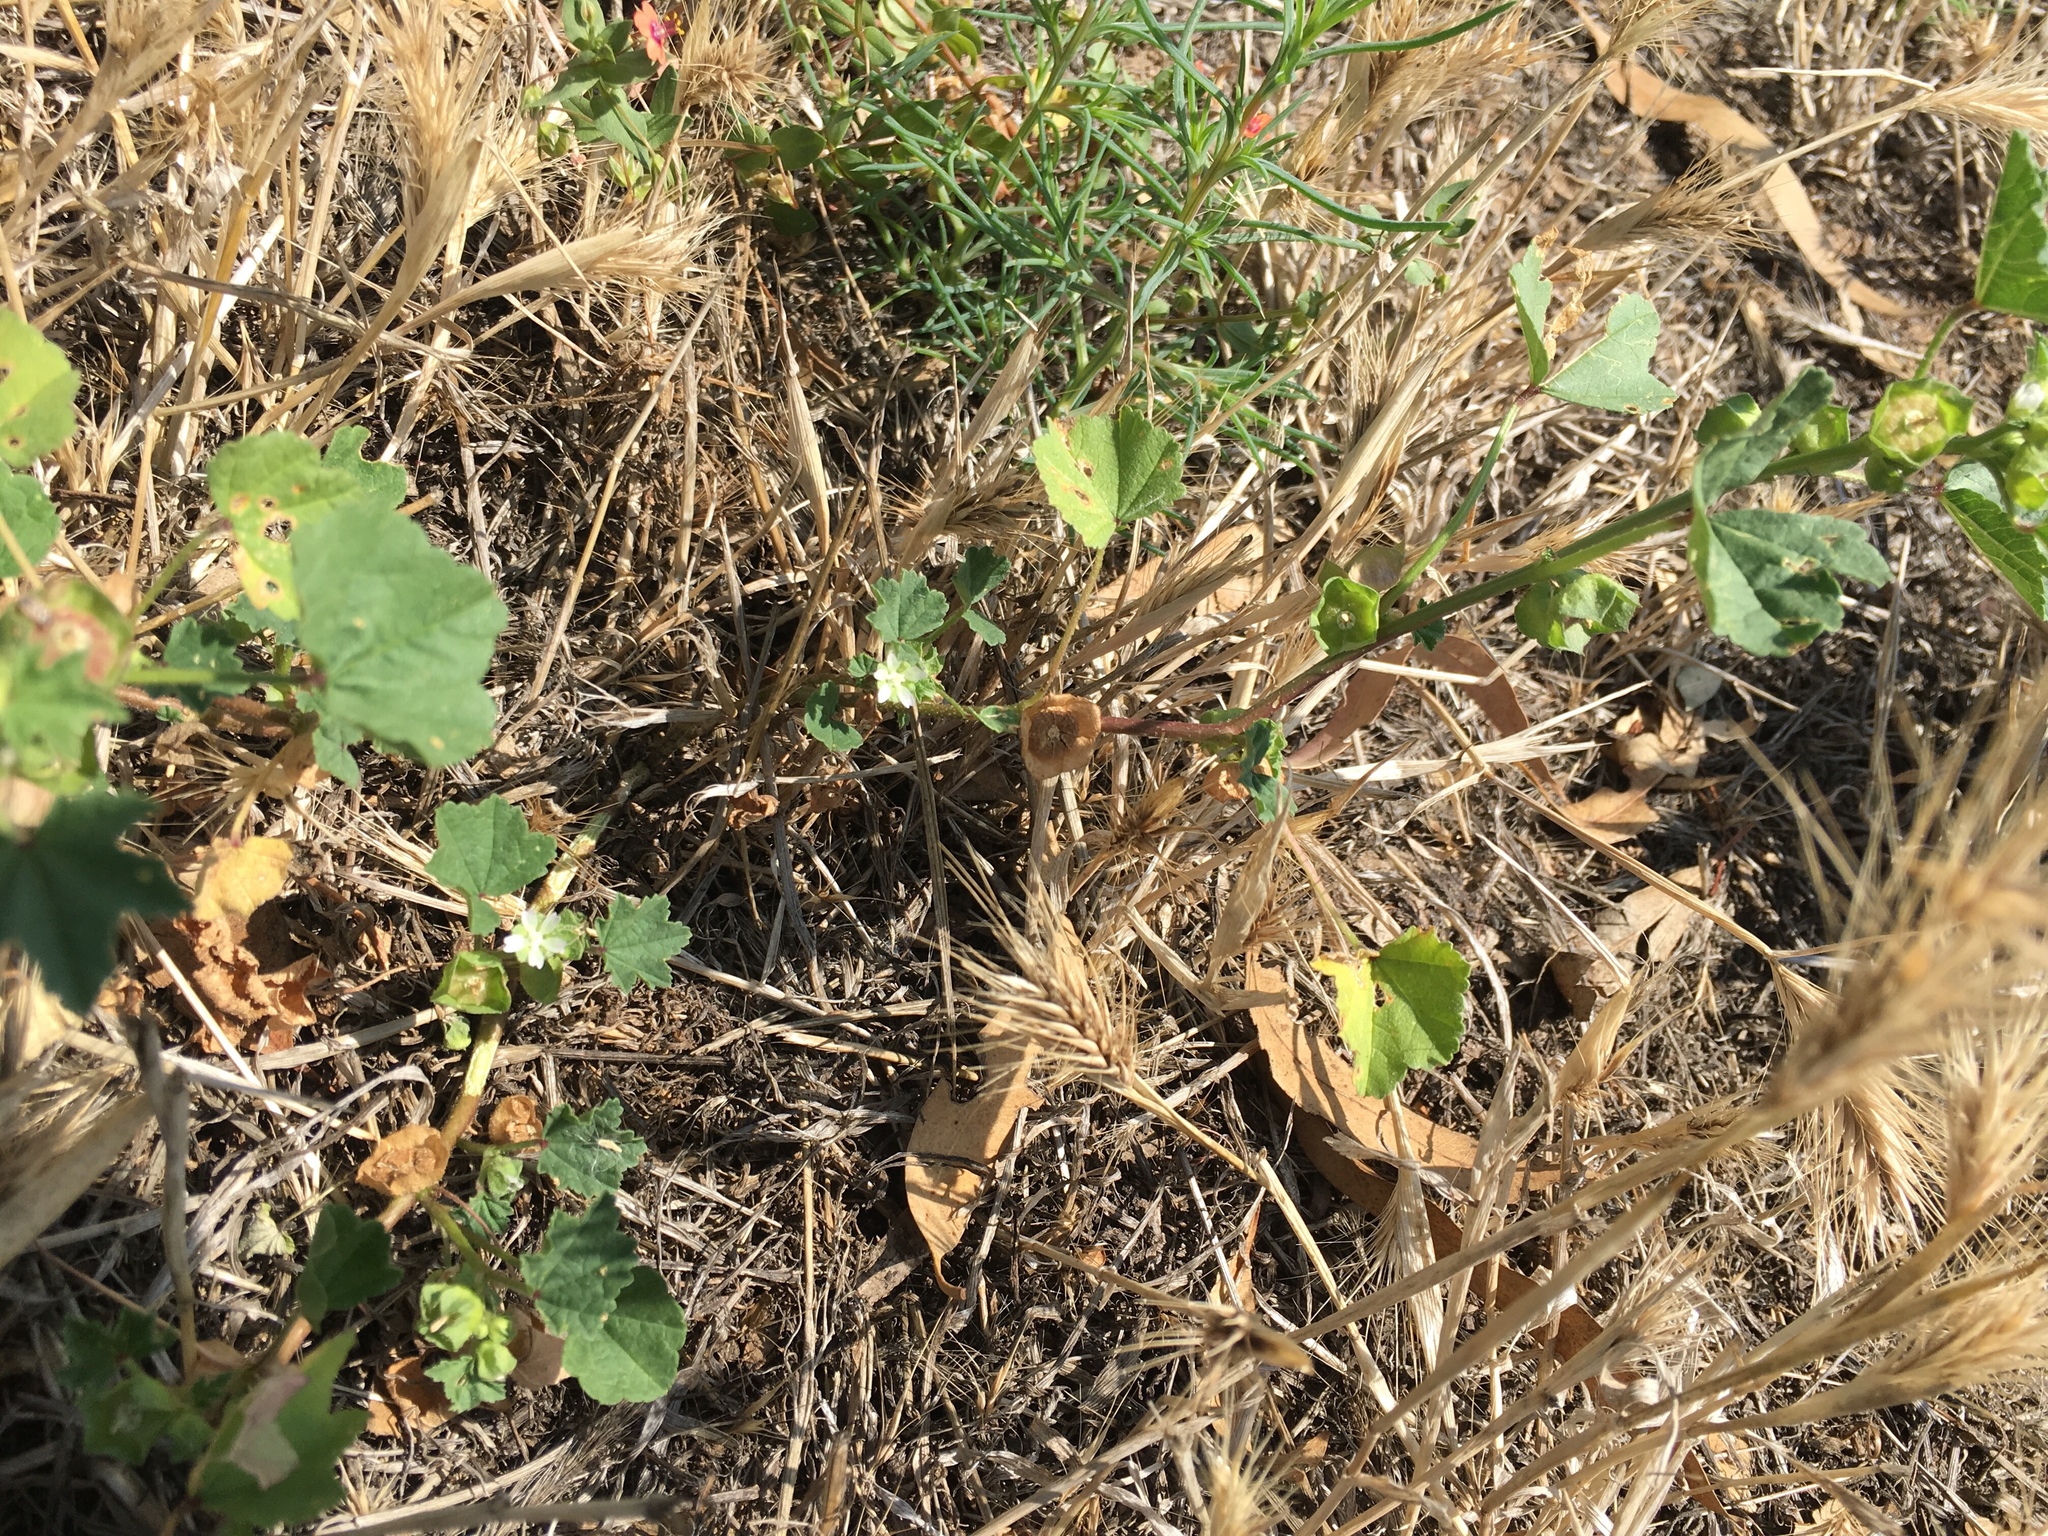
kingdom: Plantae
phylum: Tracheophyta
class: Magnoliopsida
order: Malvales
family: Malvaceae
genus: Malva
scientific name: Malva parviflora
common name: Least mallow
